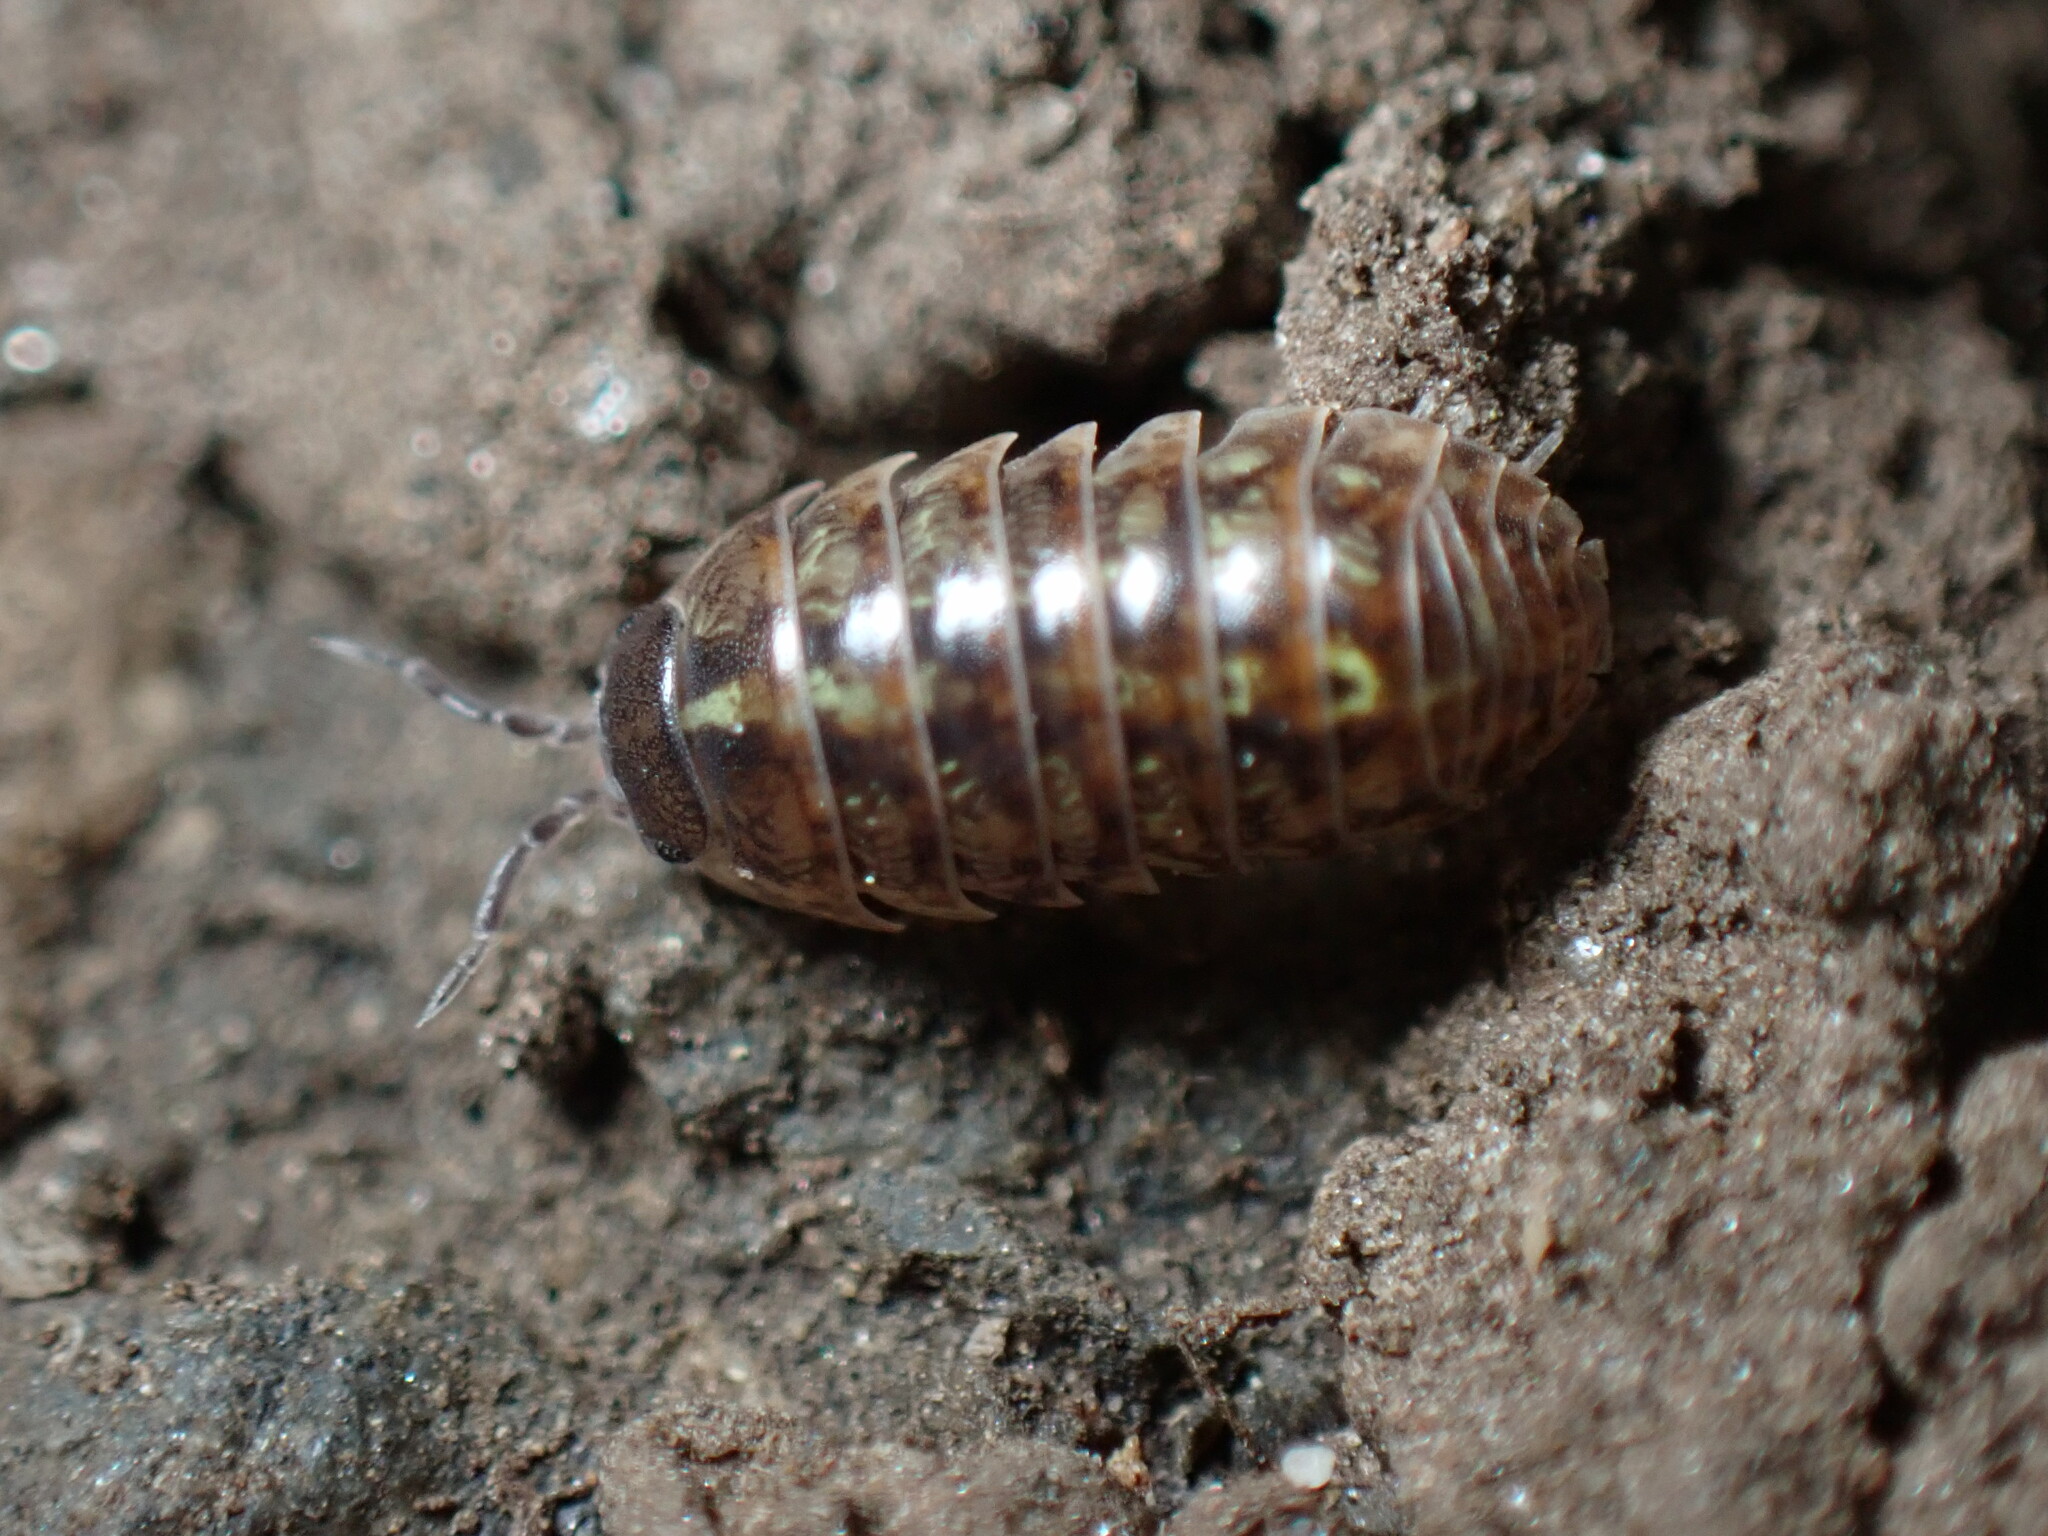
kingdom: Animalia
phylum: Arthropoda
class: Malacostraca
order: Isopoda
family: Armadillidiidae
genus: Armadillidium
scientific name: Armadillidium vulgare
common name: Common pill woodlouse
